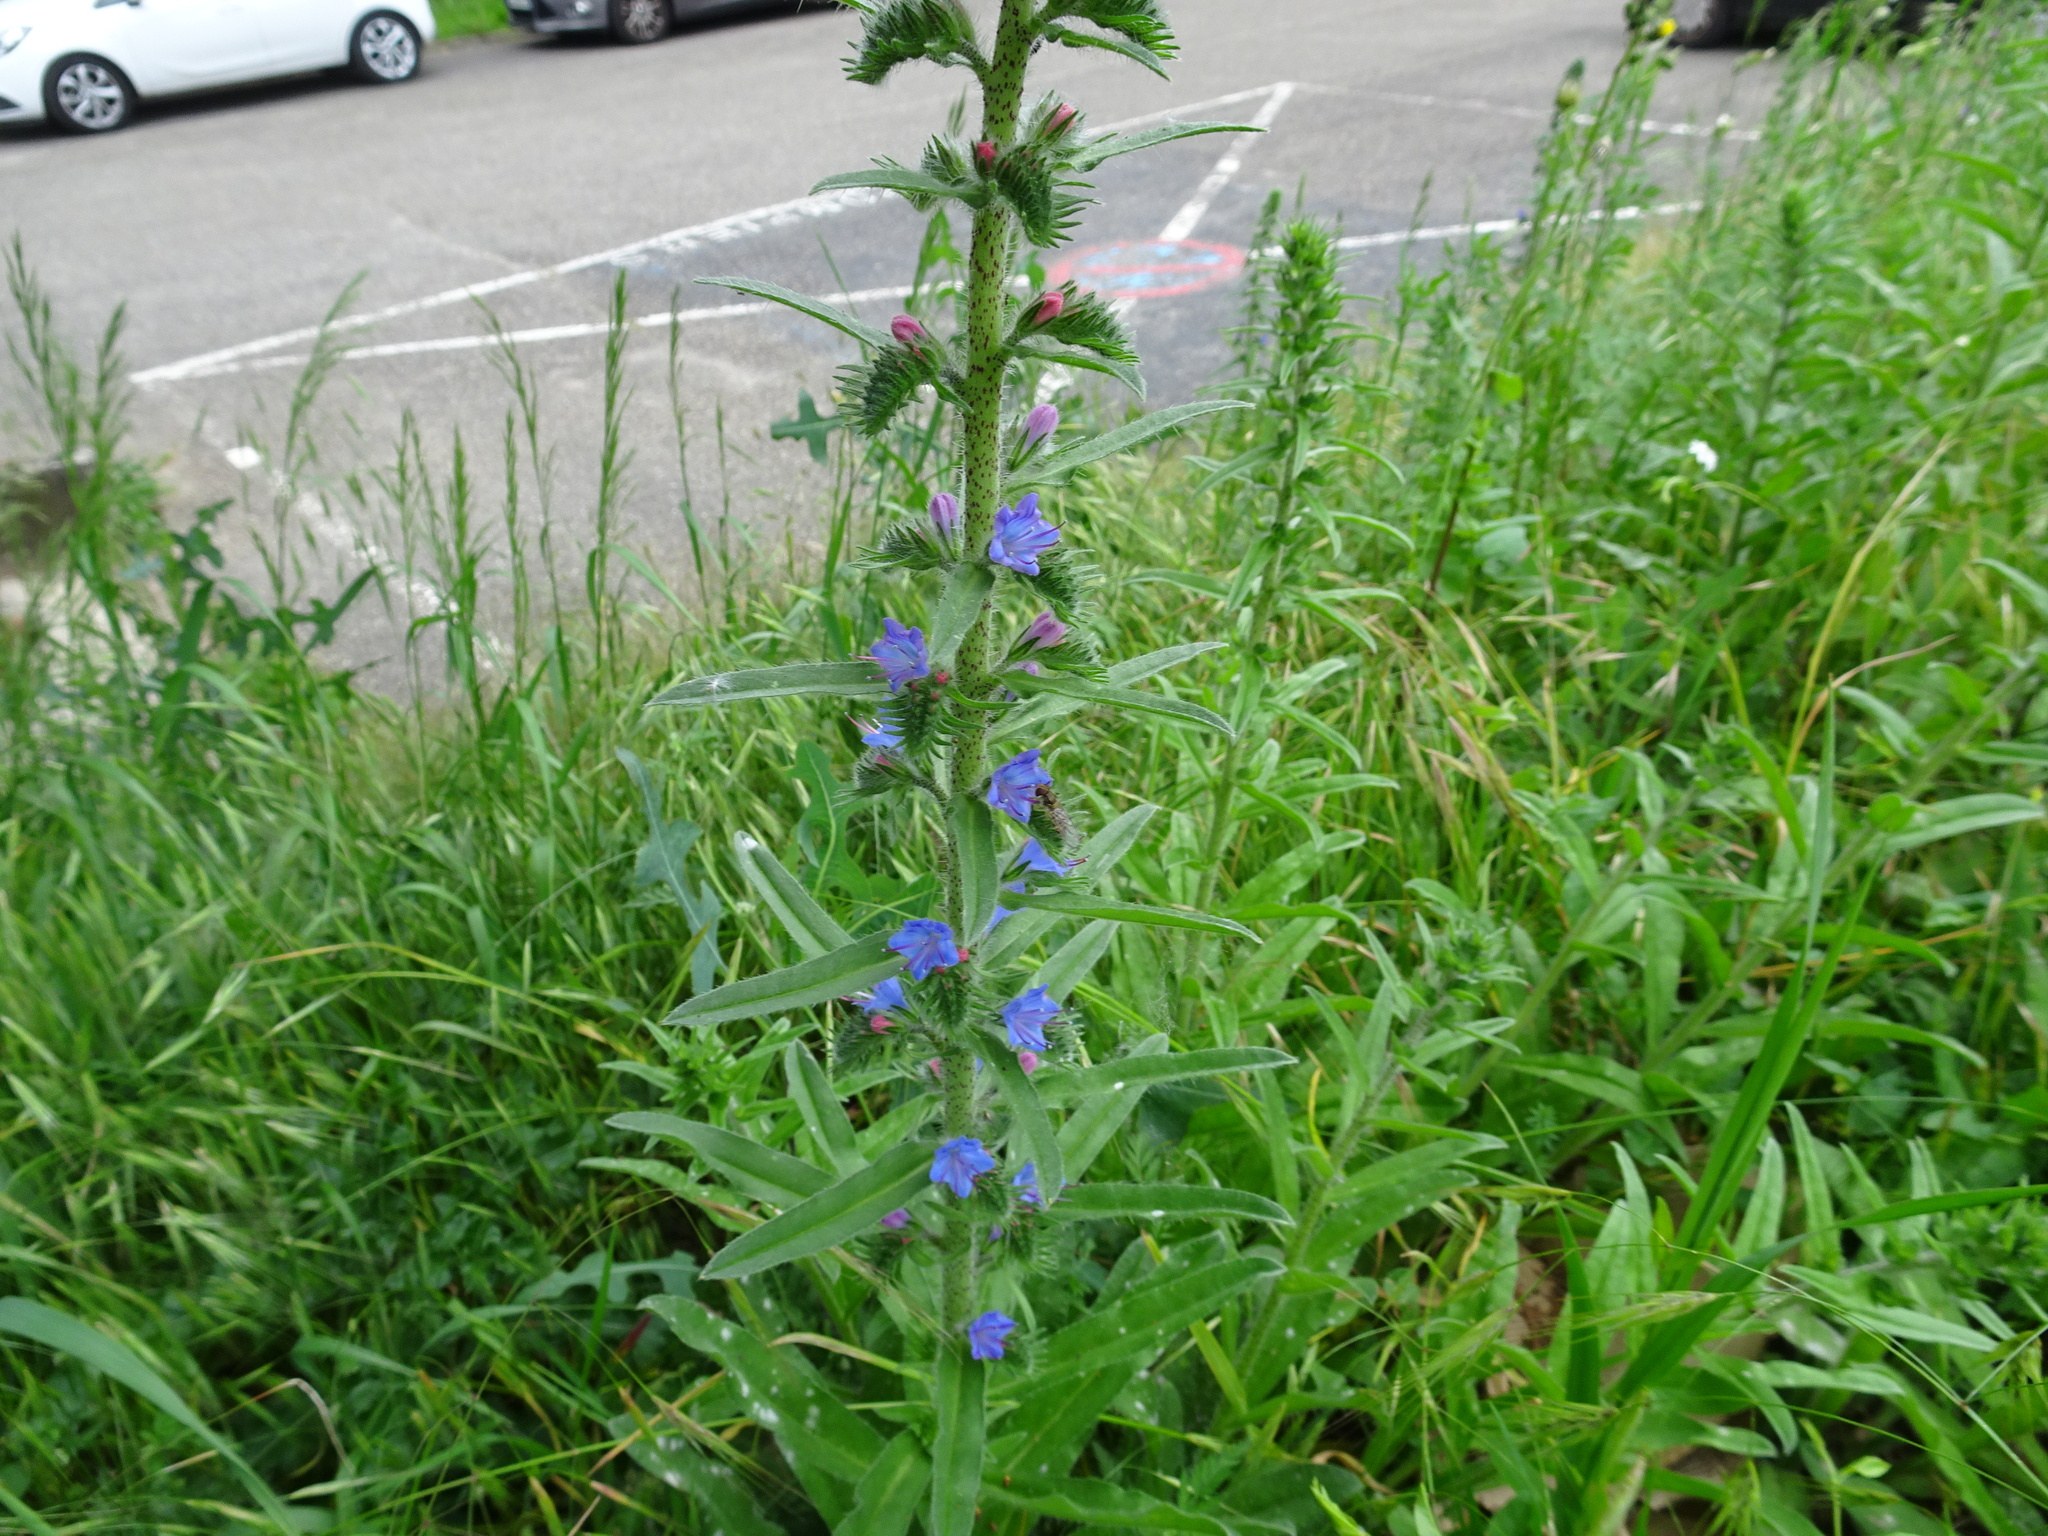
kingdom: Plantae
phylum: Tracheophyta
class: Magnoliopsida
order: Boraginales
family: Boraginaceae
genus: Echium
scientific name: Echium vulgare
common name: Common viper's bugloss
